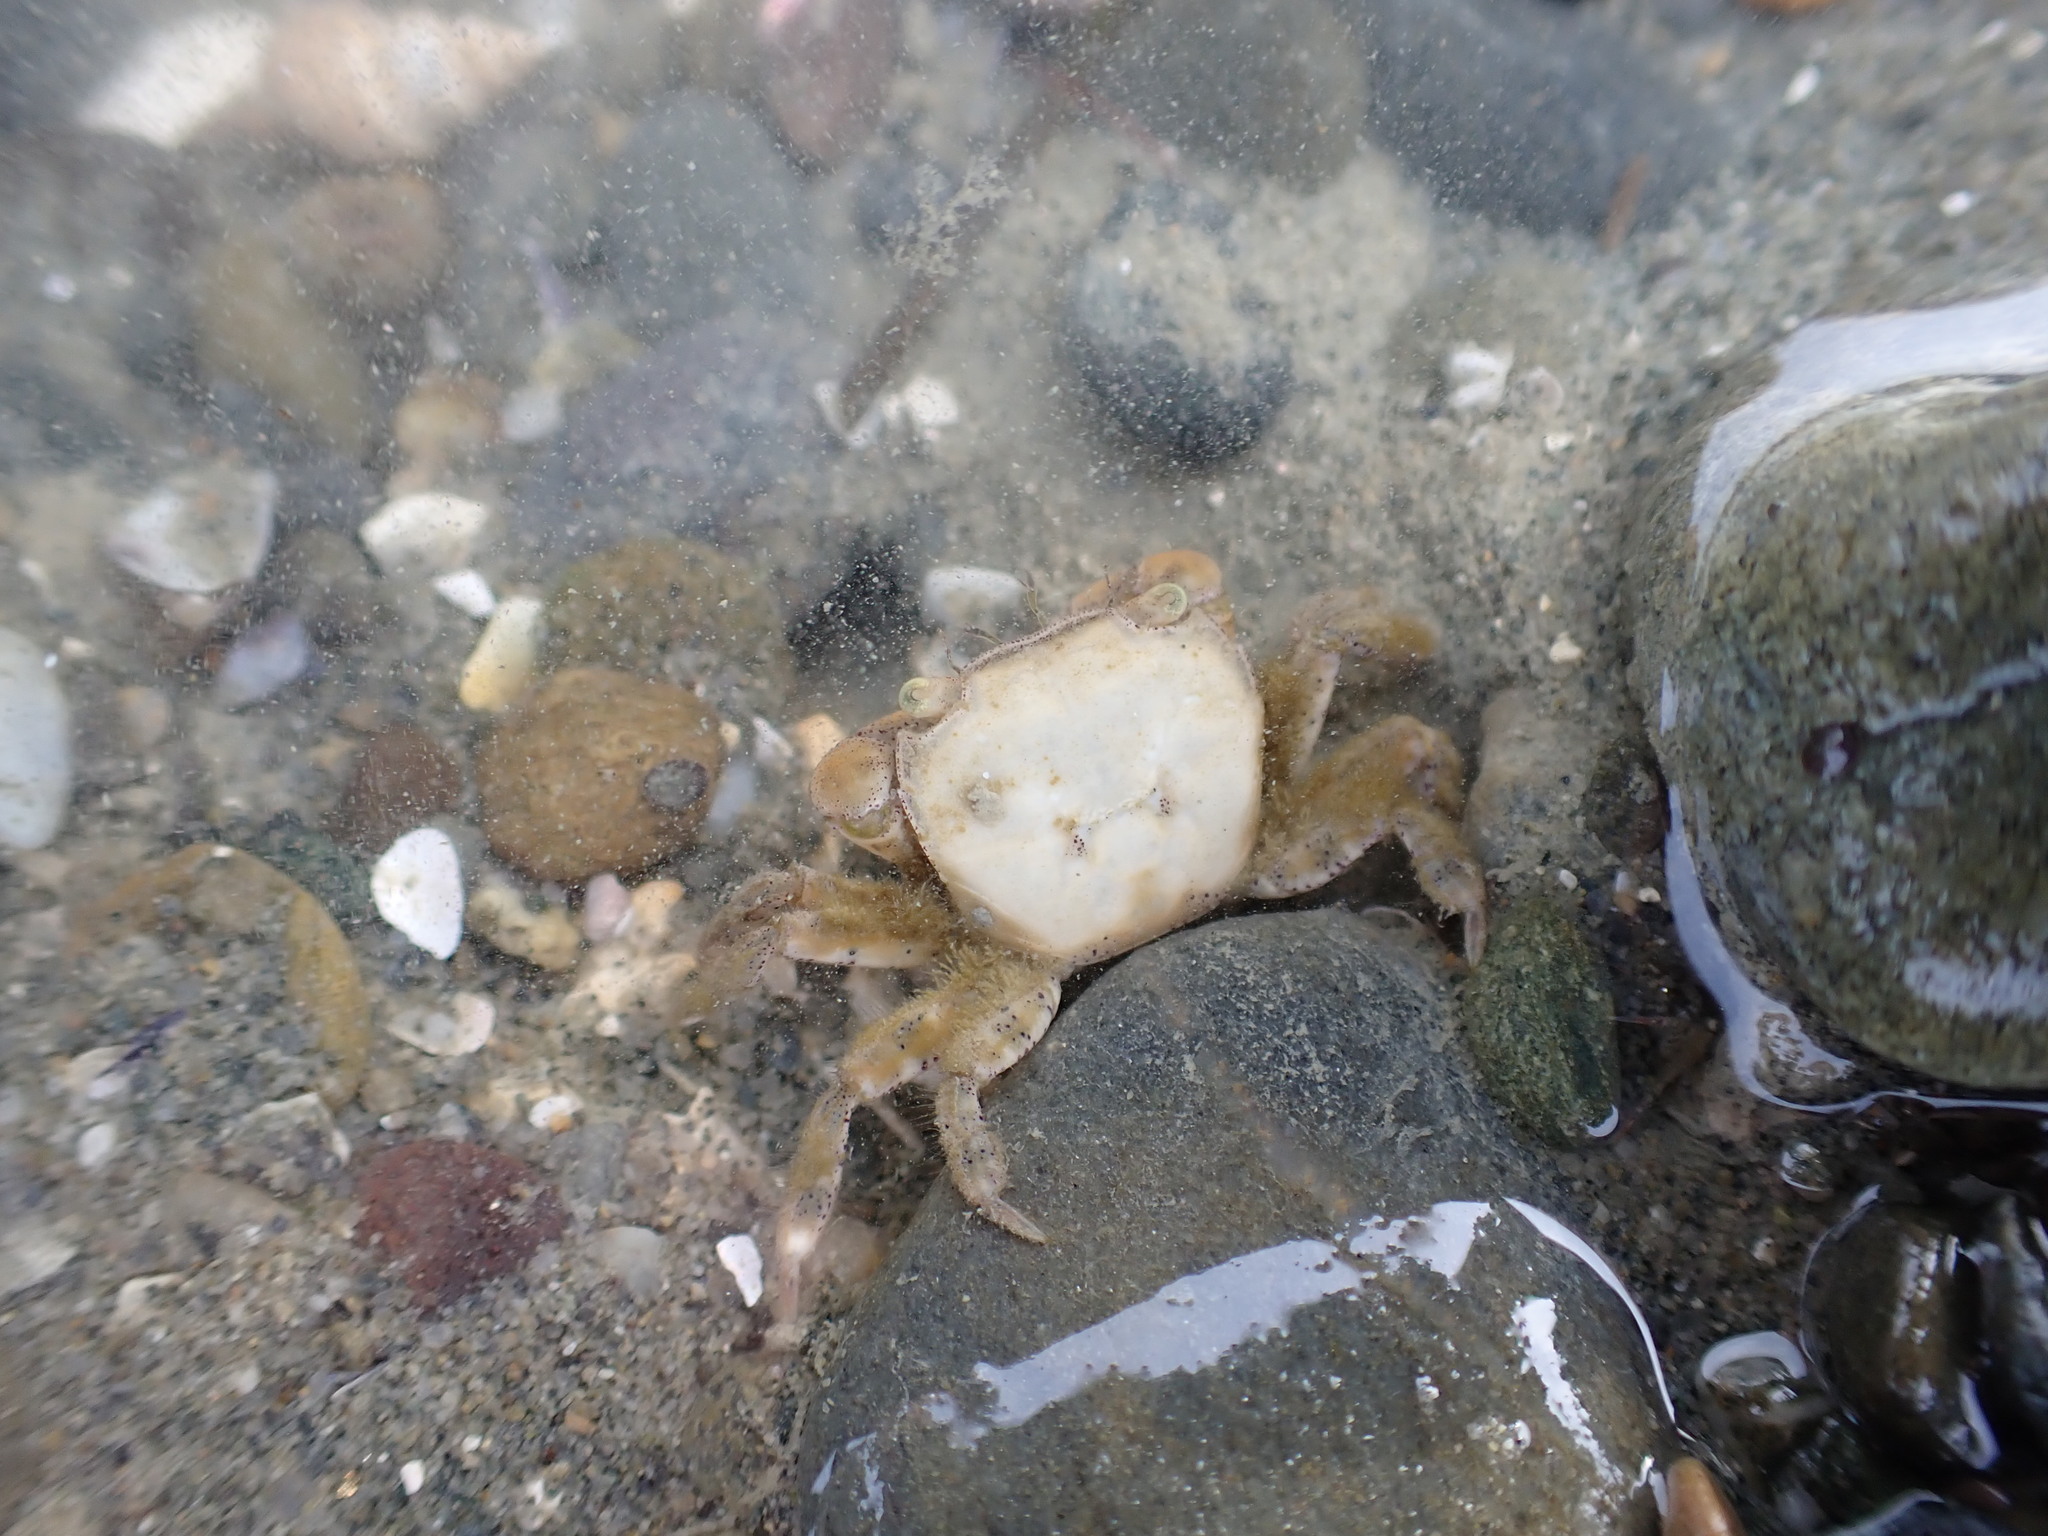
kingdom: Animalia
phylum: Arthropoda
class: Malacostraca
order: Decapoda
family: Varunidae
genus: Hemigrapsus
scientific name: Hemigrapsus crenulatus
